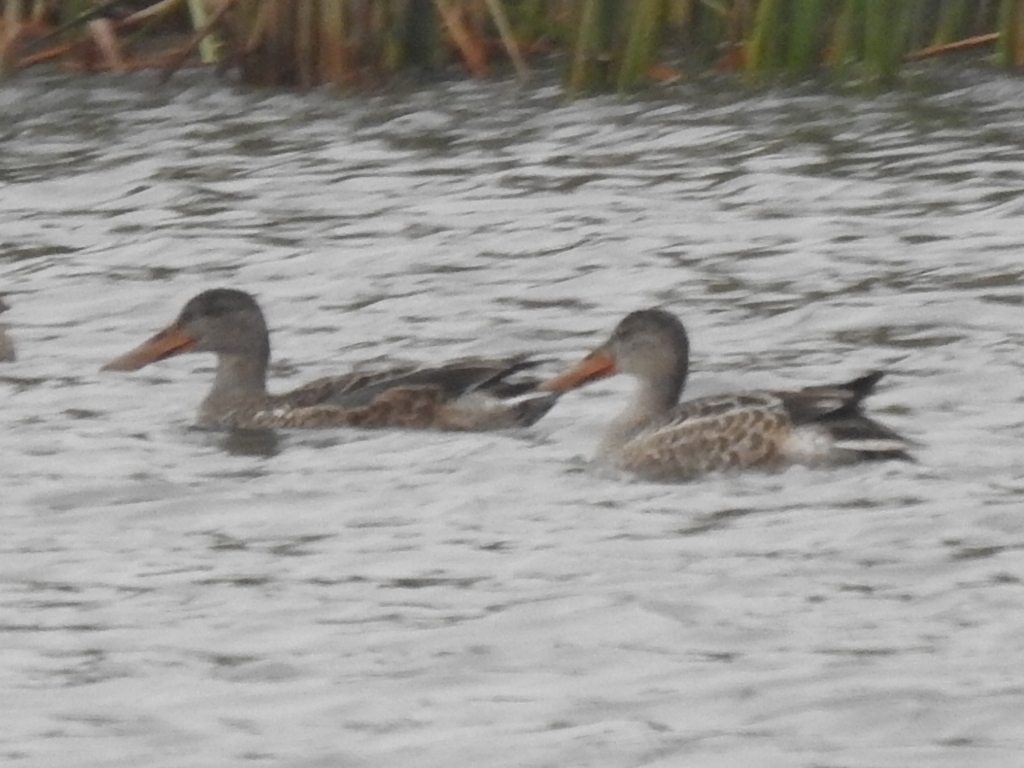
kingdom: Animalia
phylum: Chordata
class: Aves
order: Anseriformes
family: Anatidae
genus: Spatula
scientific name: Spatula clypeata
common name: Northern shoveler
